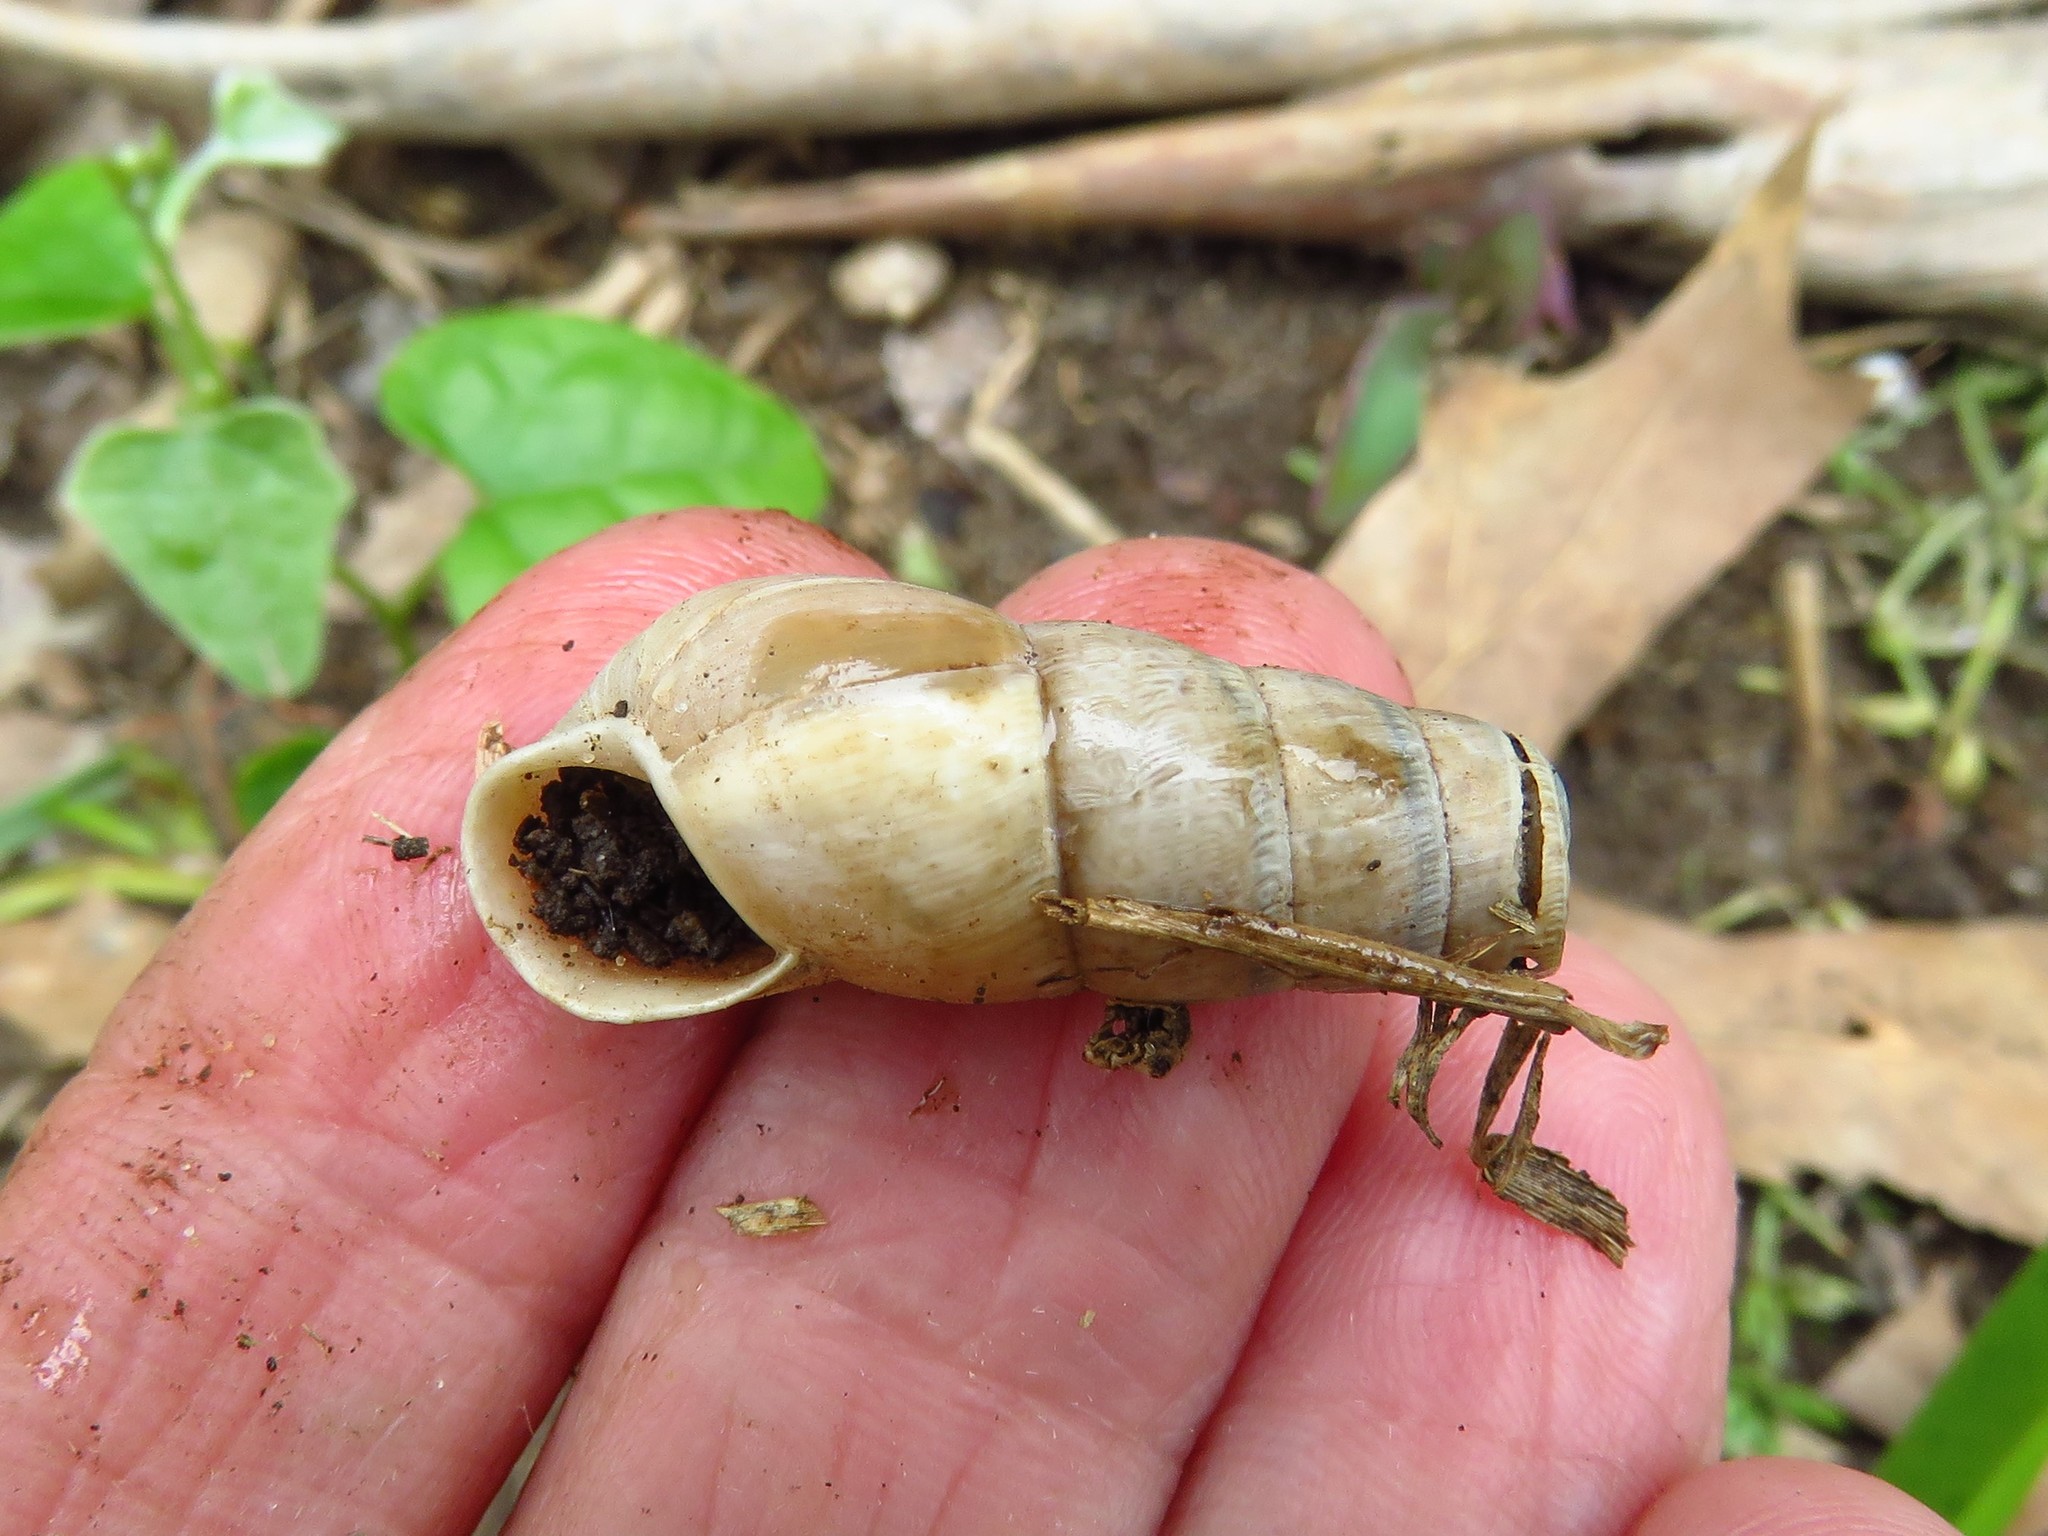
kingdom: Animalia
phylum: Mollusca
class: Gastropoda
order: Stylommatophora
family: Achatinidae
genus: Rumina
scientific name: Rumina decollata
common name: Decollate snail
